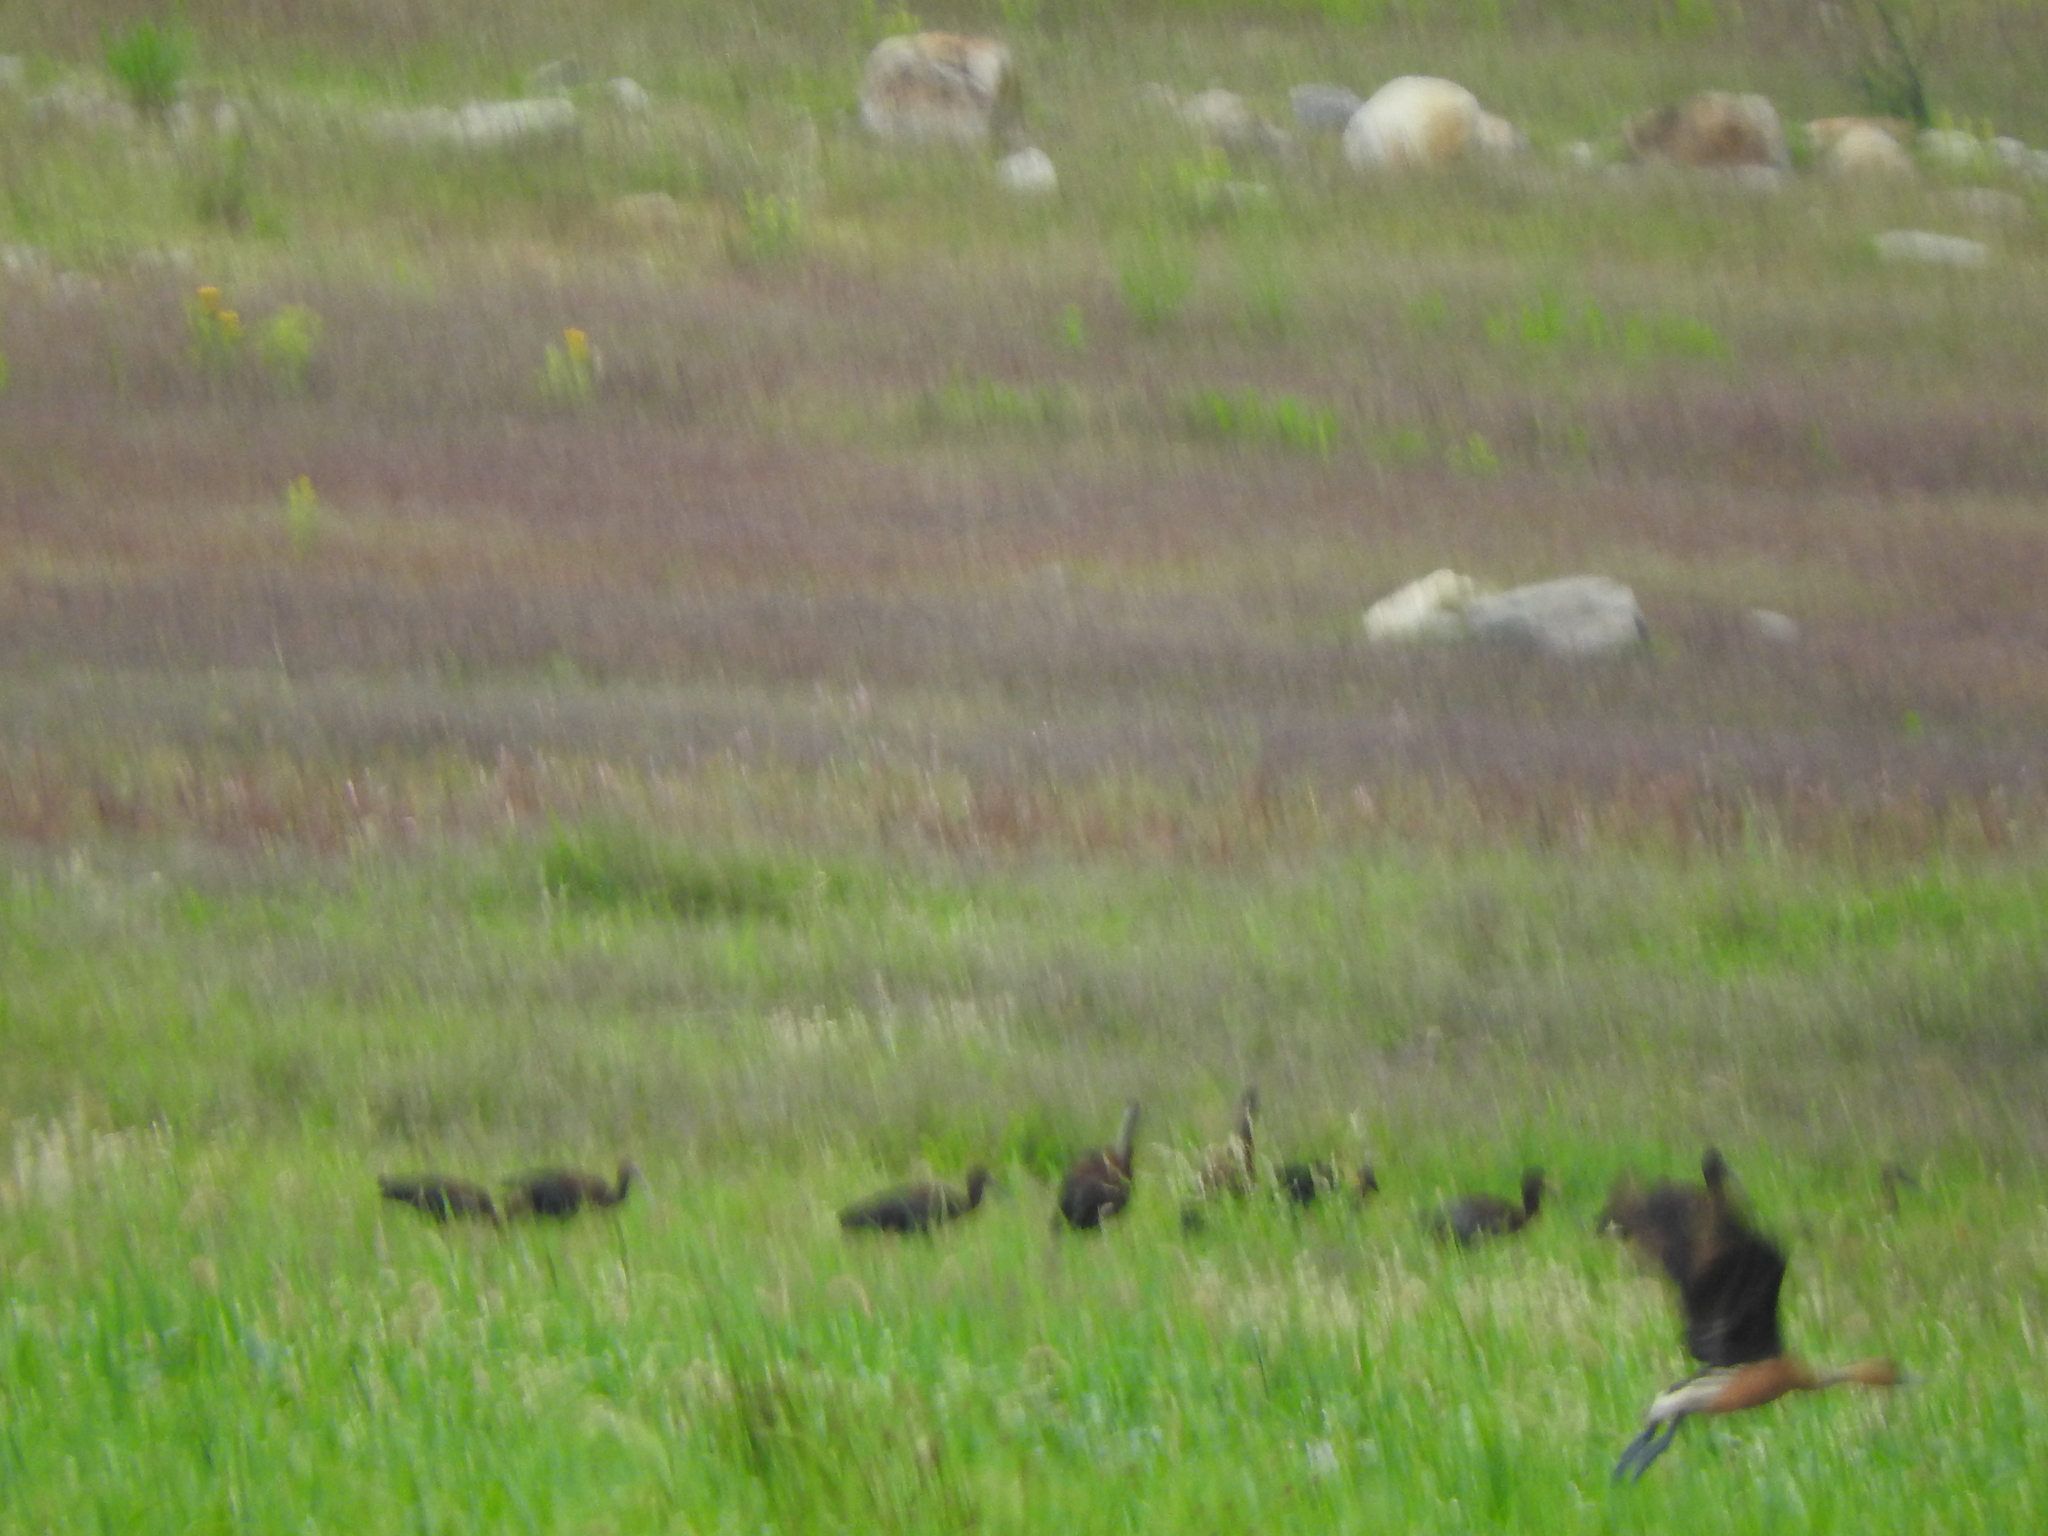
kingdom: Animalia
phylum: Chordata
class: Aves
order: Anseriformes
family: Anatidae
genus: Dendrocygna
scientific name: Dendrocygna bicolor
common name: Fulvous whistling duck
